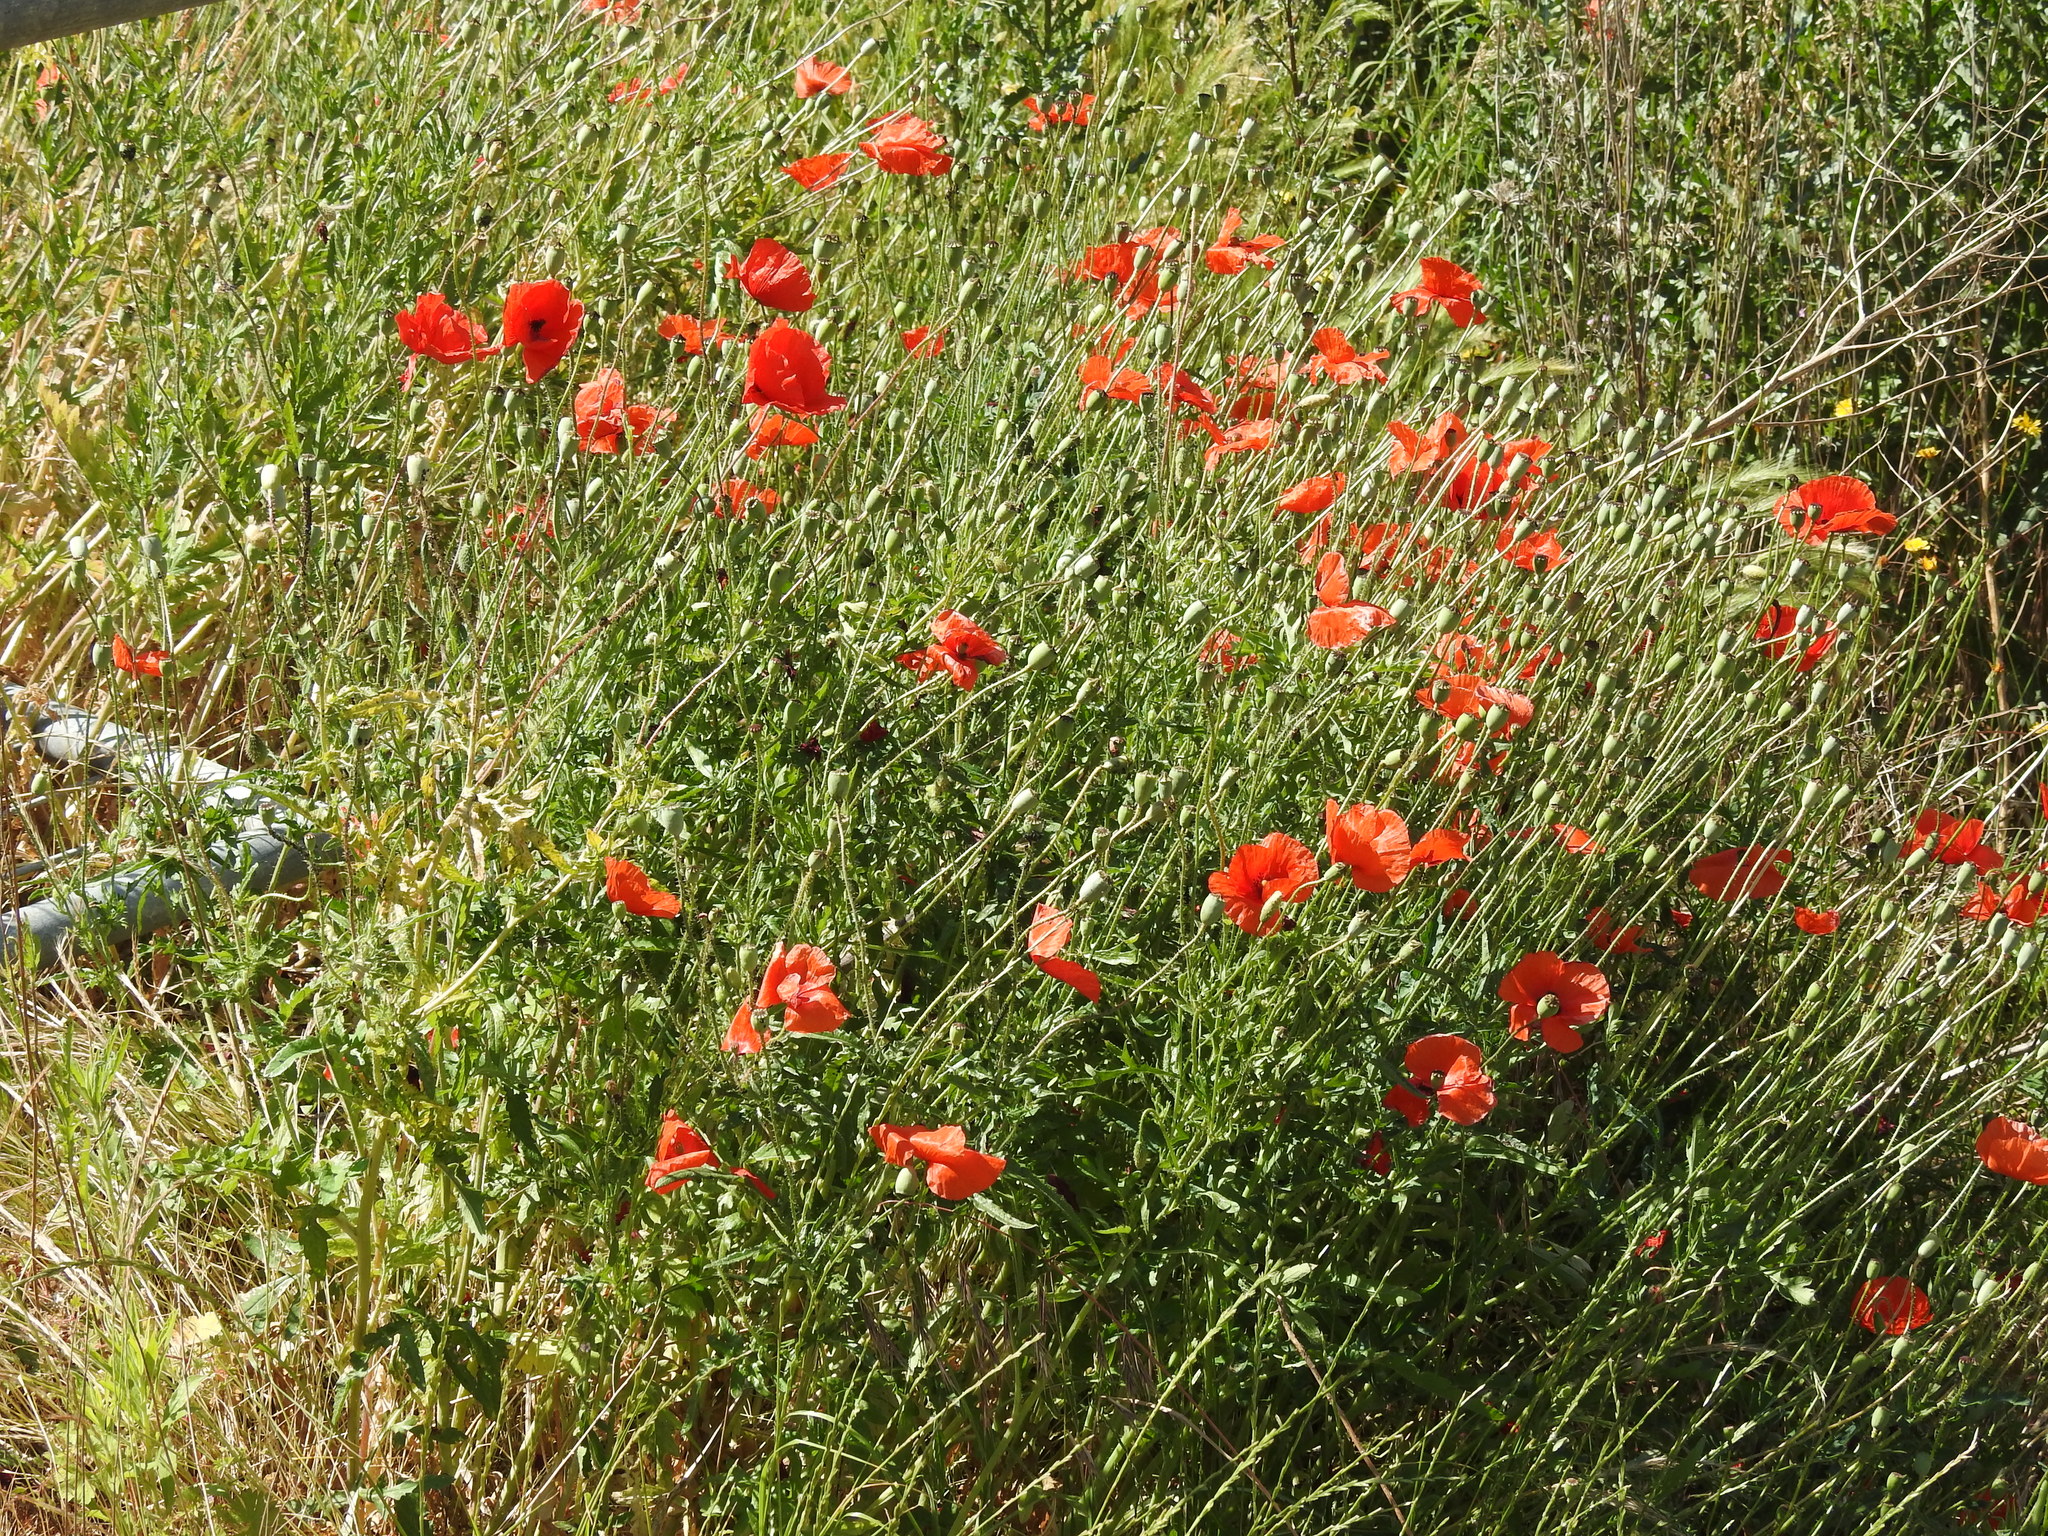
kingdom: Plantae
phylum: Tracheophyta
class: Magnoliopsida
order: Ranunculales
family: Papaveraceae
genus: Papaver
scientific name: Papaver rhoeas
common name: Corn poppy
